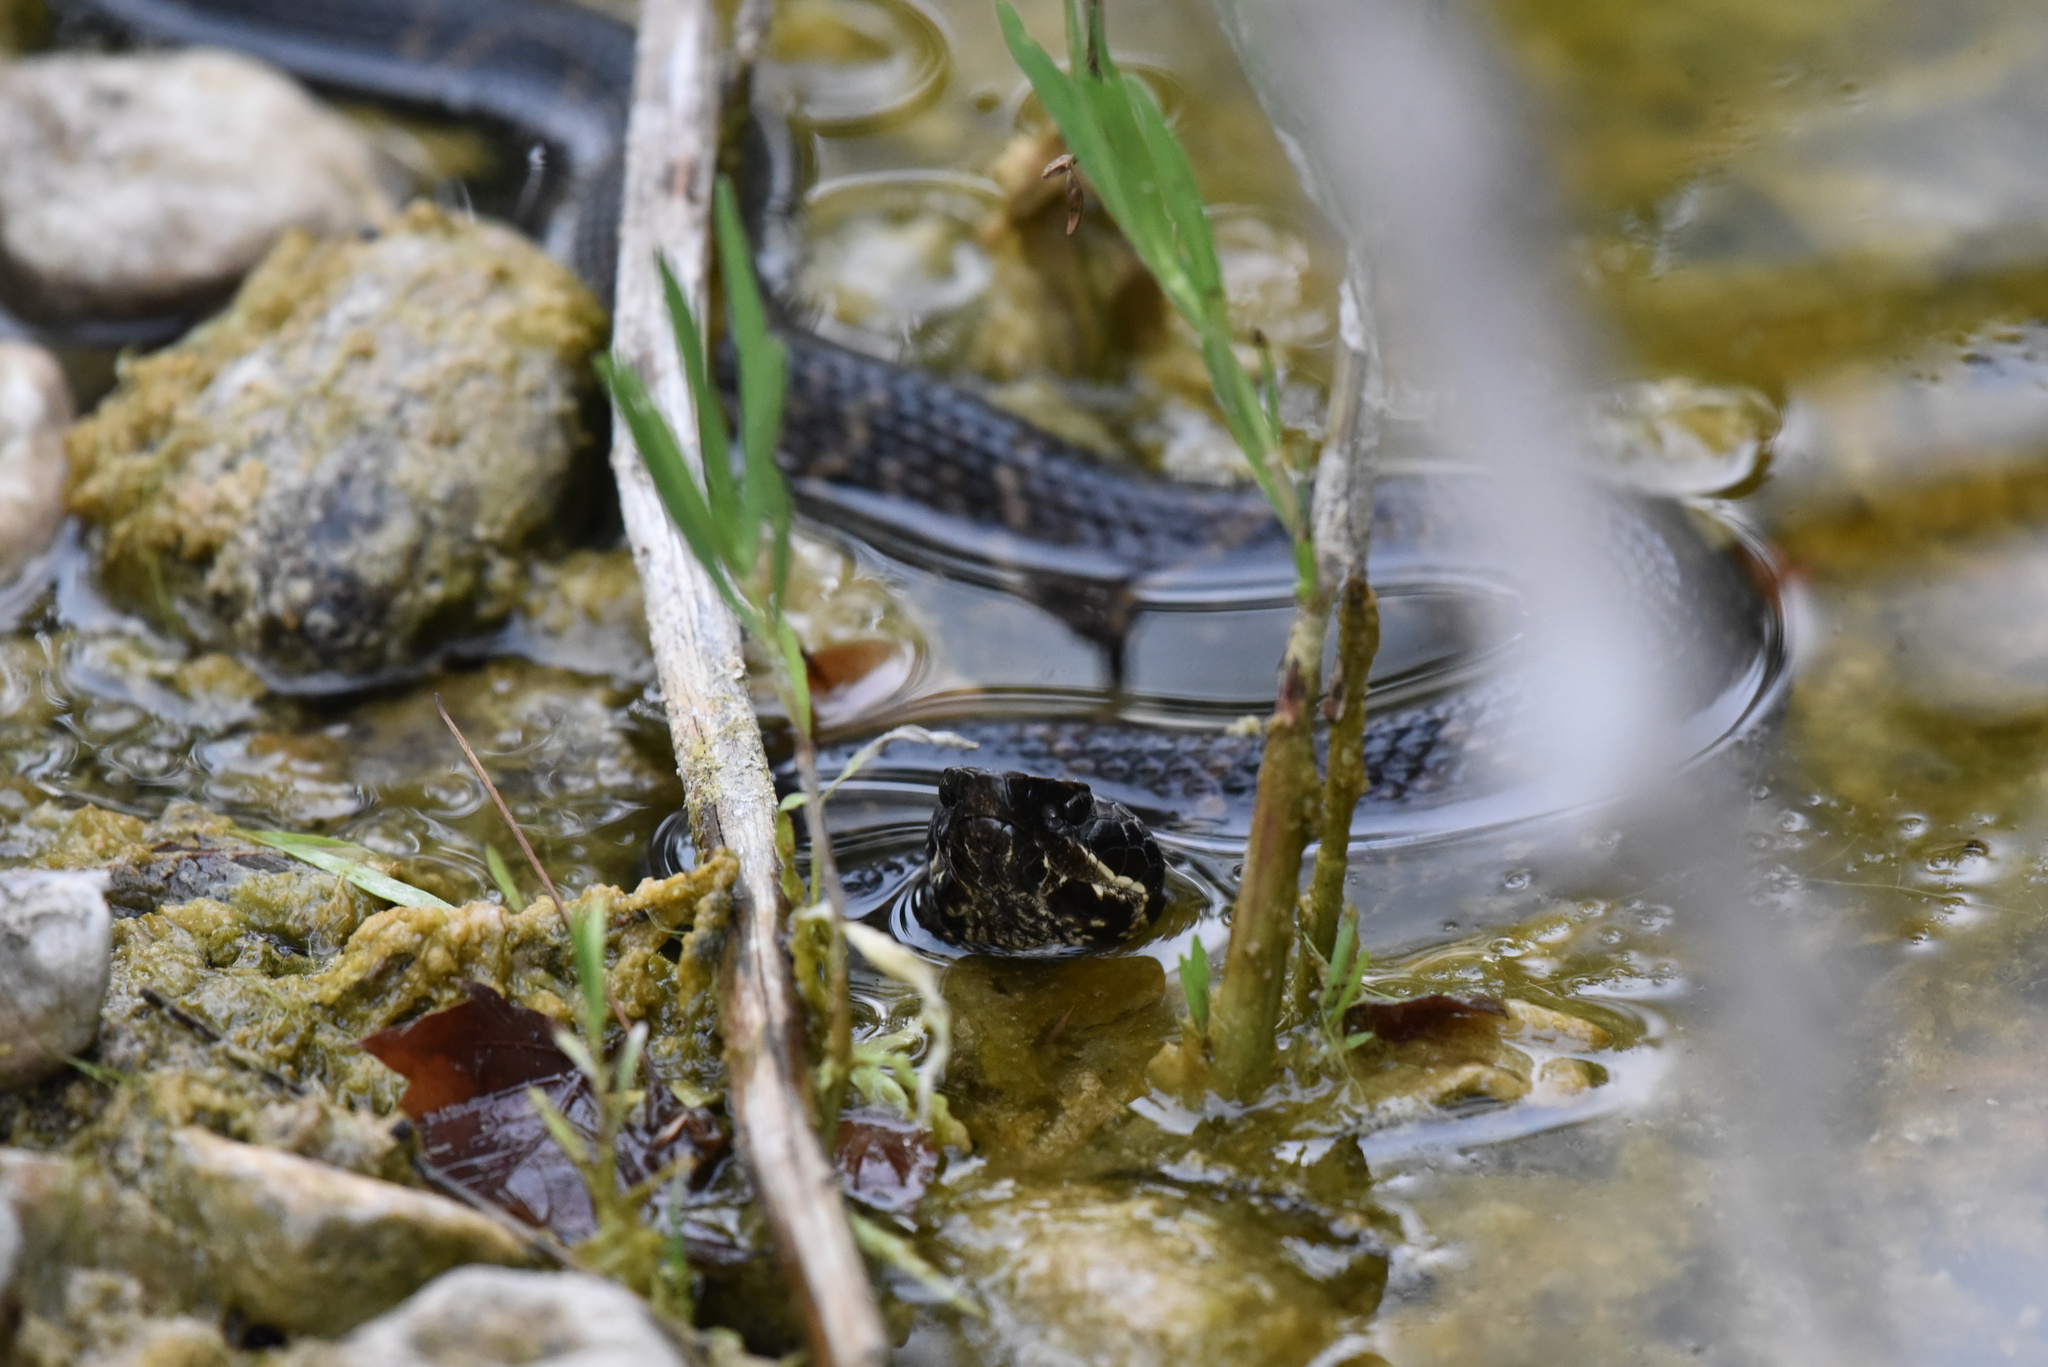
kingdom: Animalia
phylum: Chordata
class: Squamata
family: Viperidae
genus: Agkistrodon
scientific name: Agkistrodon piscivorus
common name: Cottonmouth
